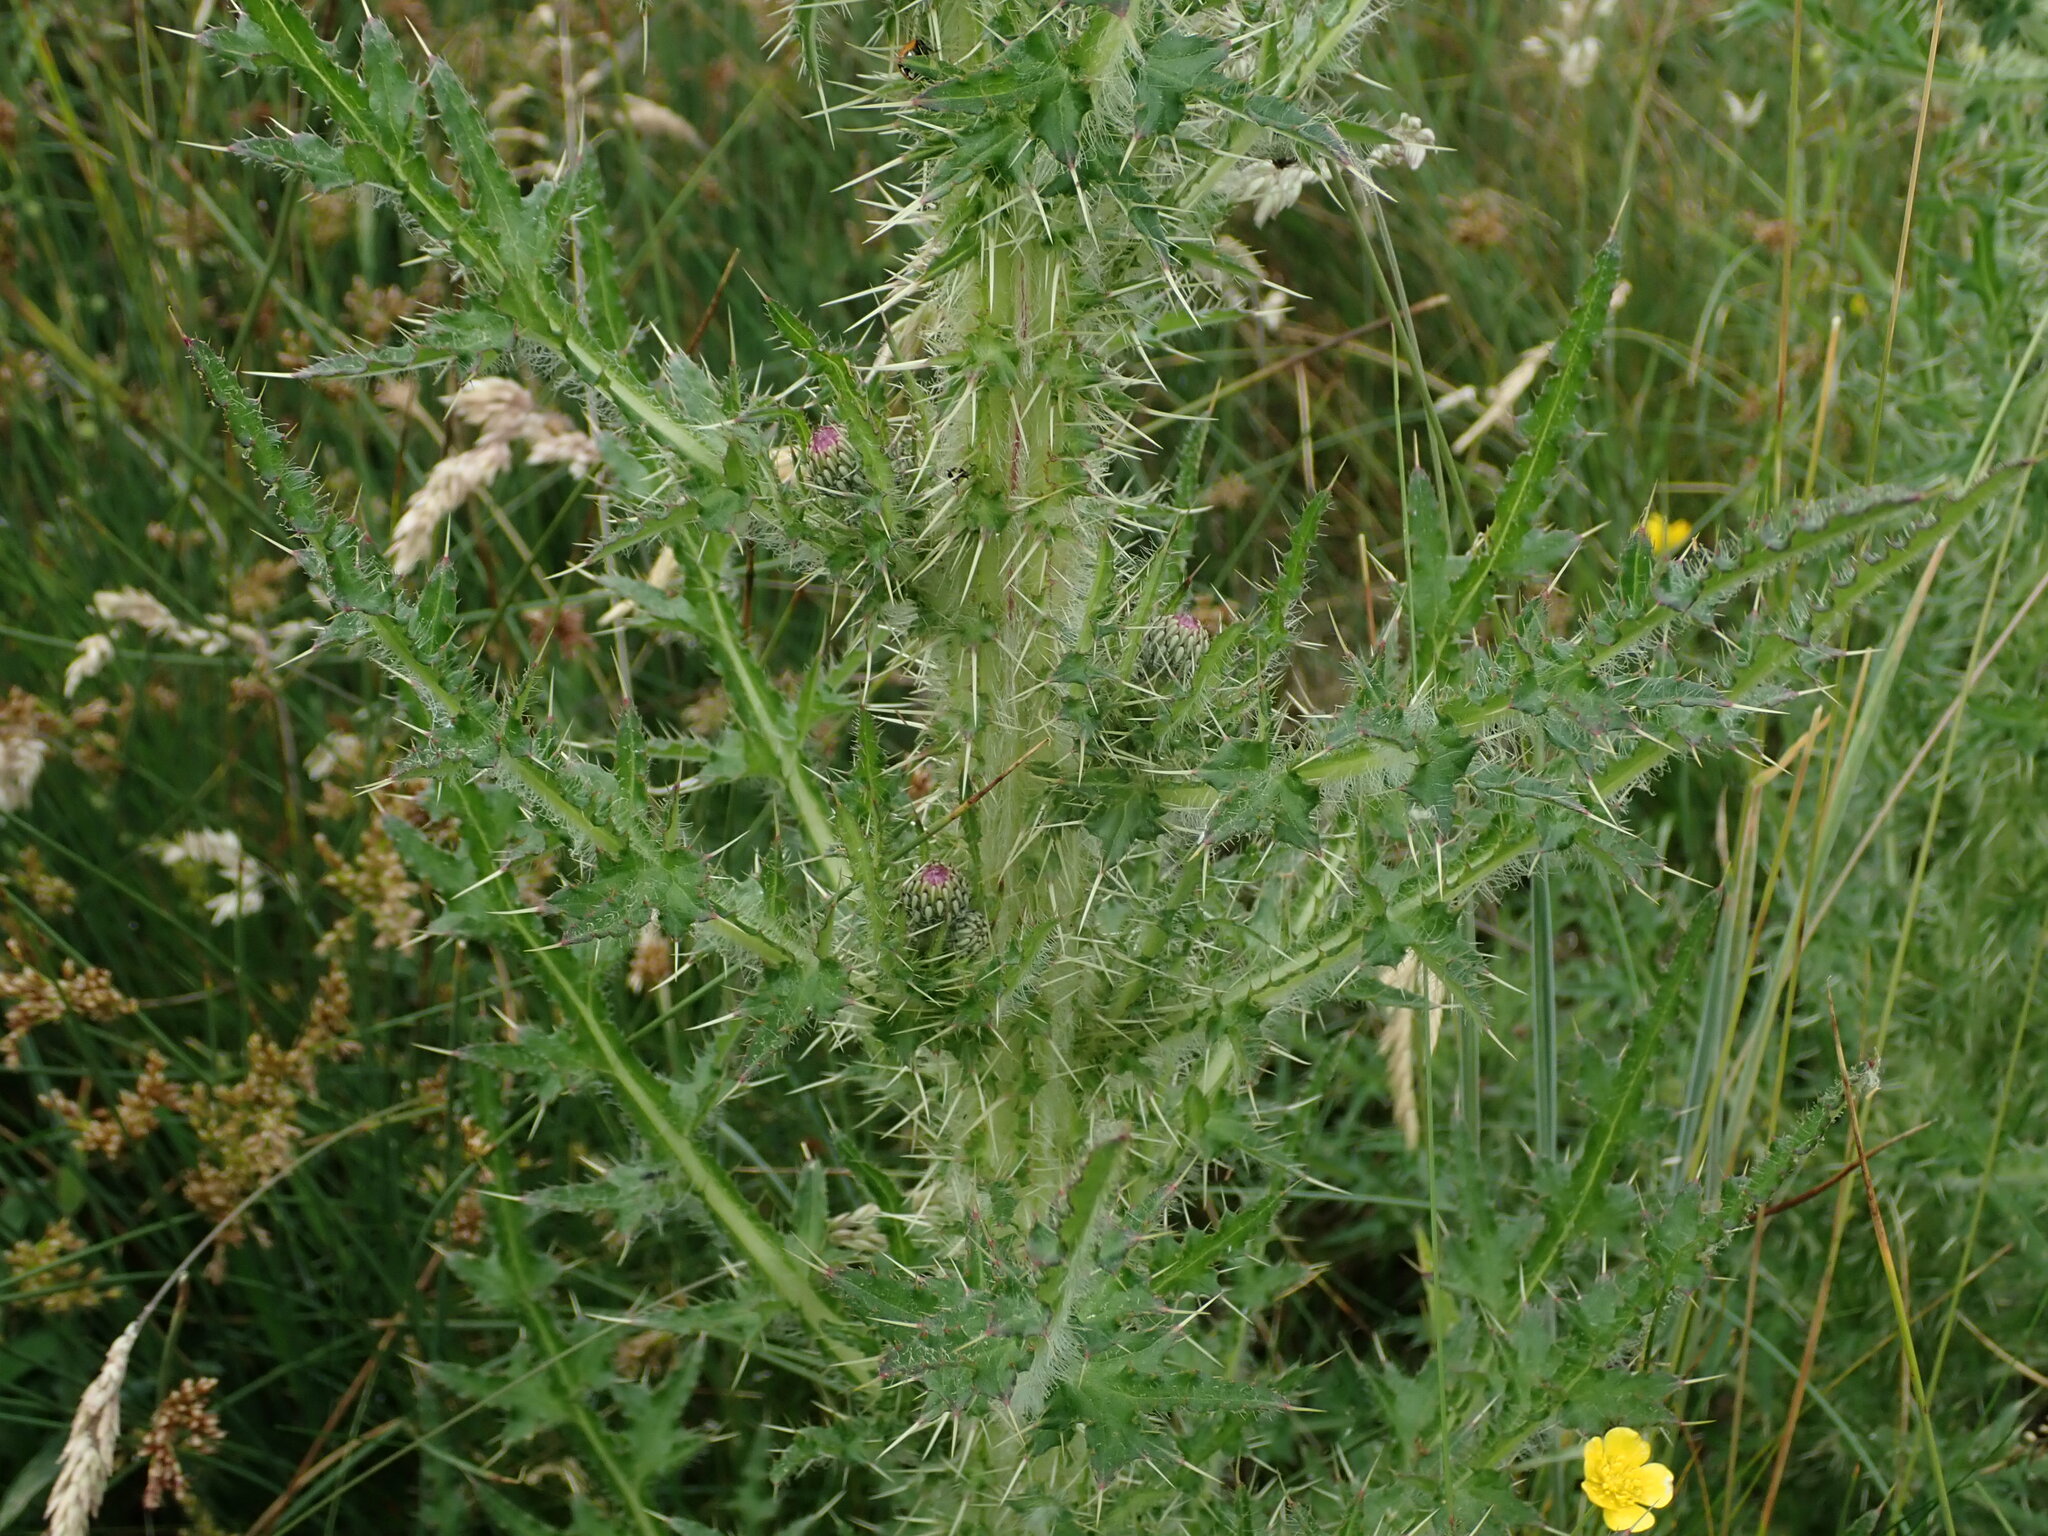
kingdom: Plantae
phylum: Tracheophyta
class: Magnoliopsida
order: Asterales
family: Asteraceae
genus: Cirsium
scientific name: Cirsium palustre
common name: Marsh thistle
